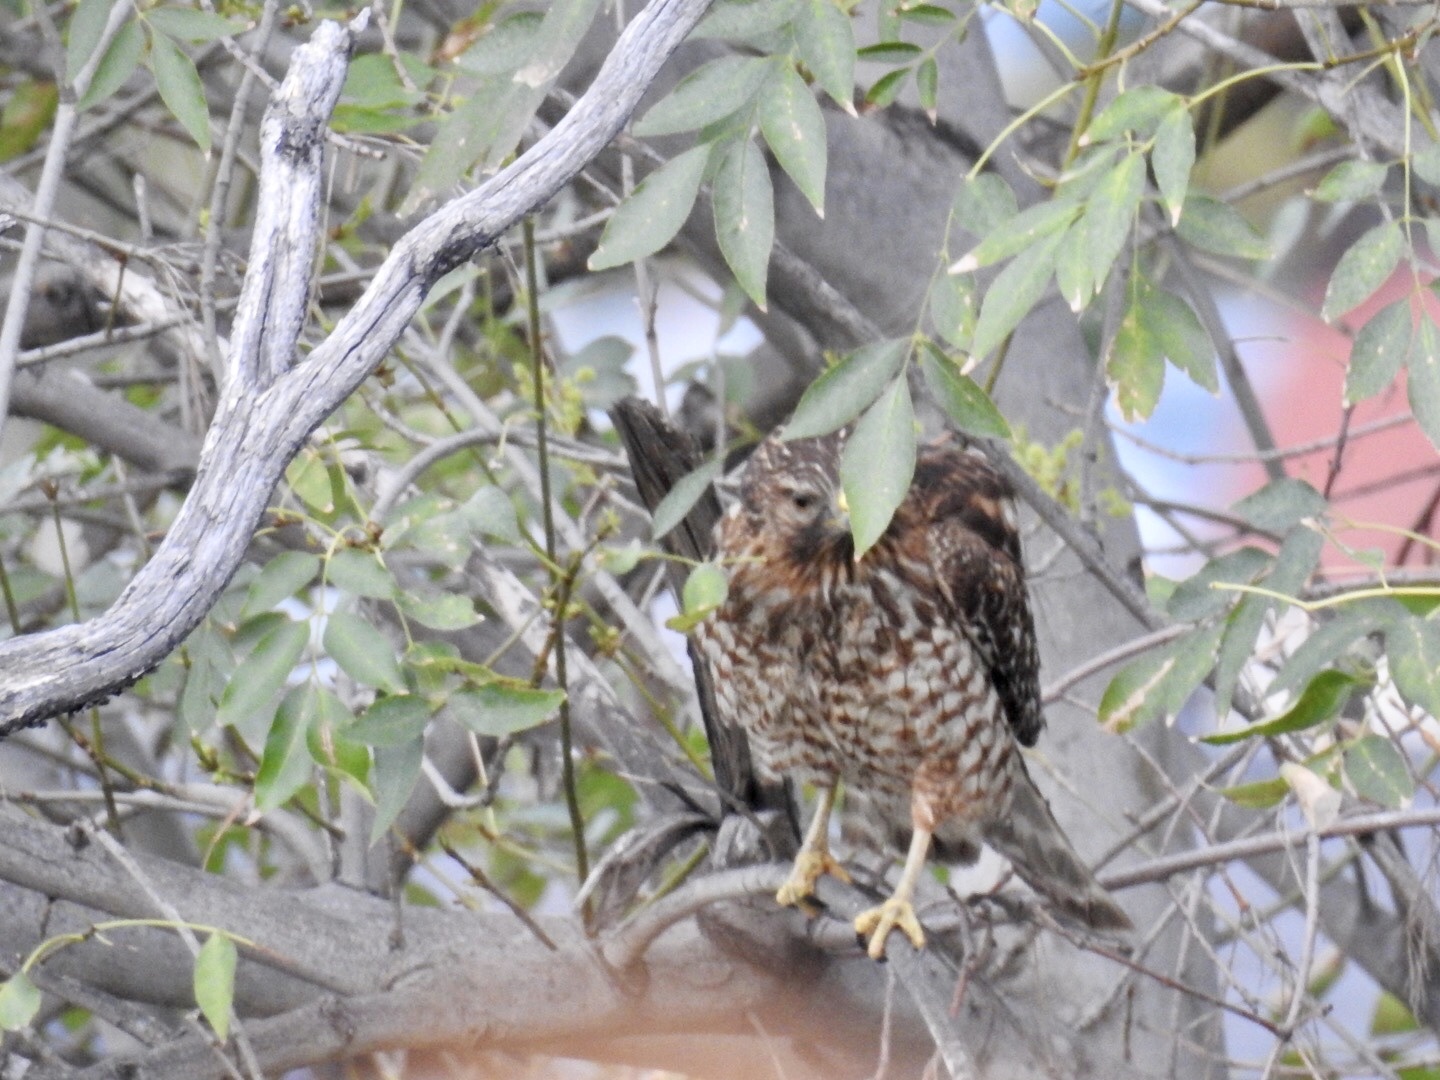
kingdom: Animalia
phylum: Chordata
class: Aves
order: Accipitriformes
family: Accipitridae
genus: Buteo
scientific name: Buteo lineatus
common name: Red-shouldered hawk
